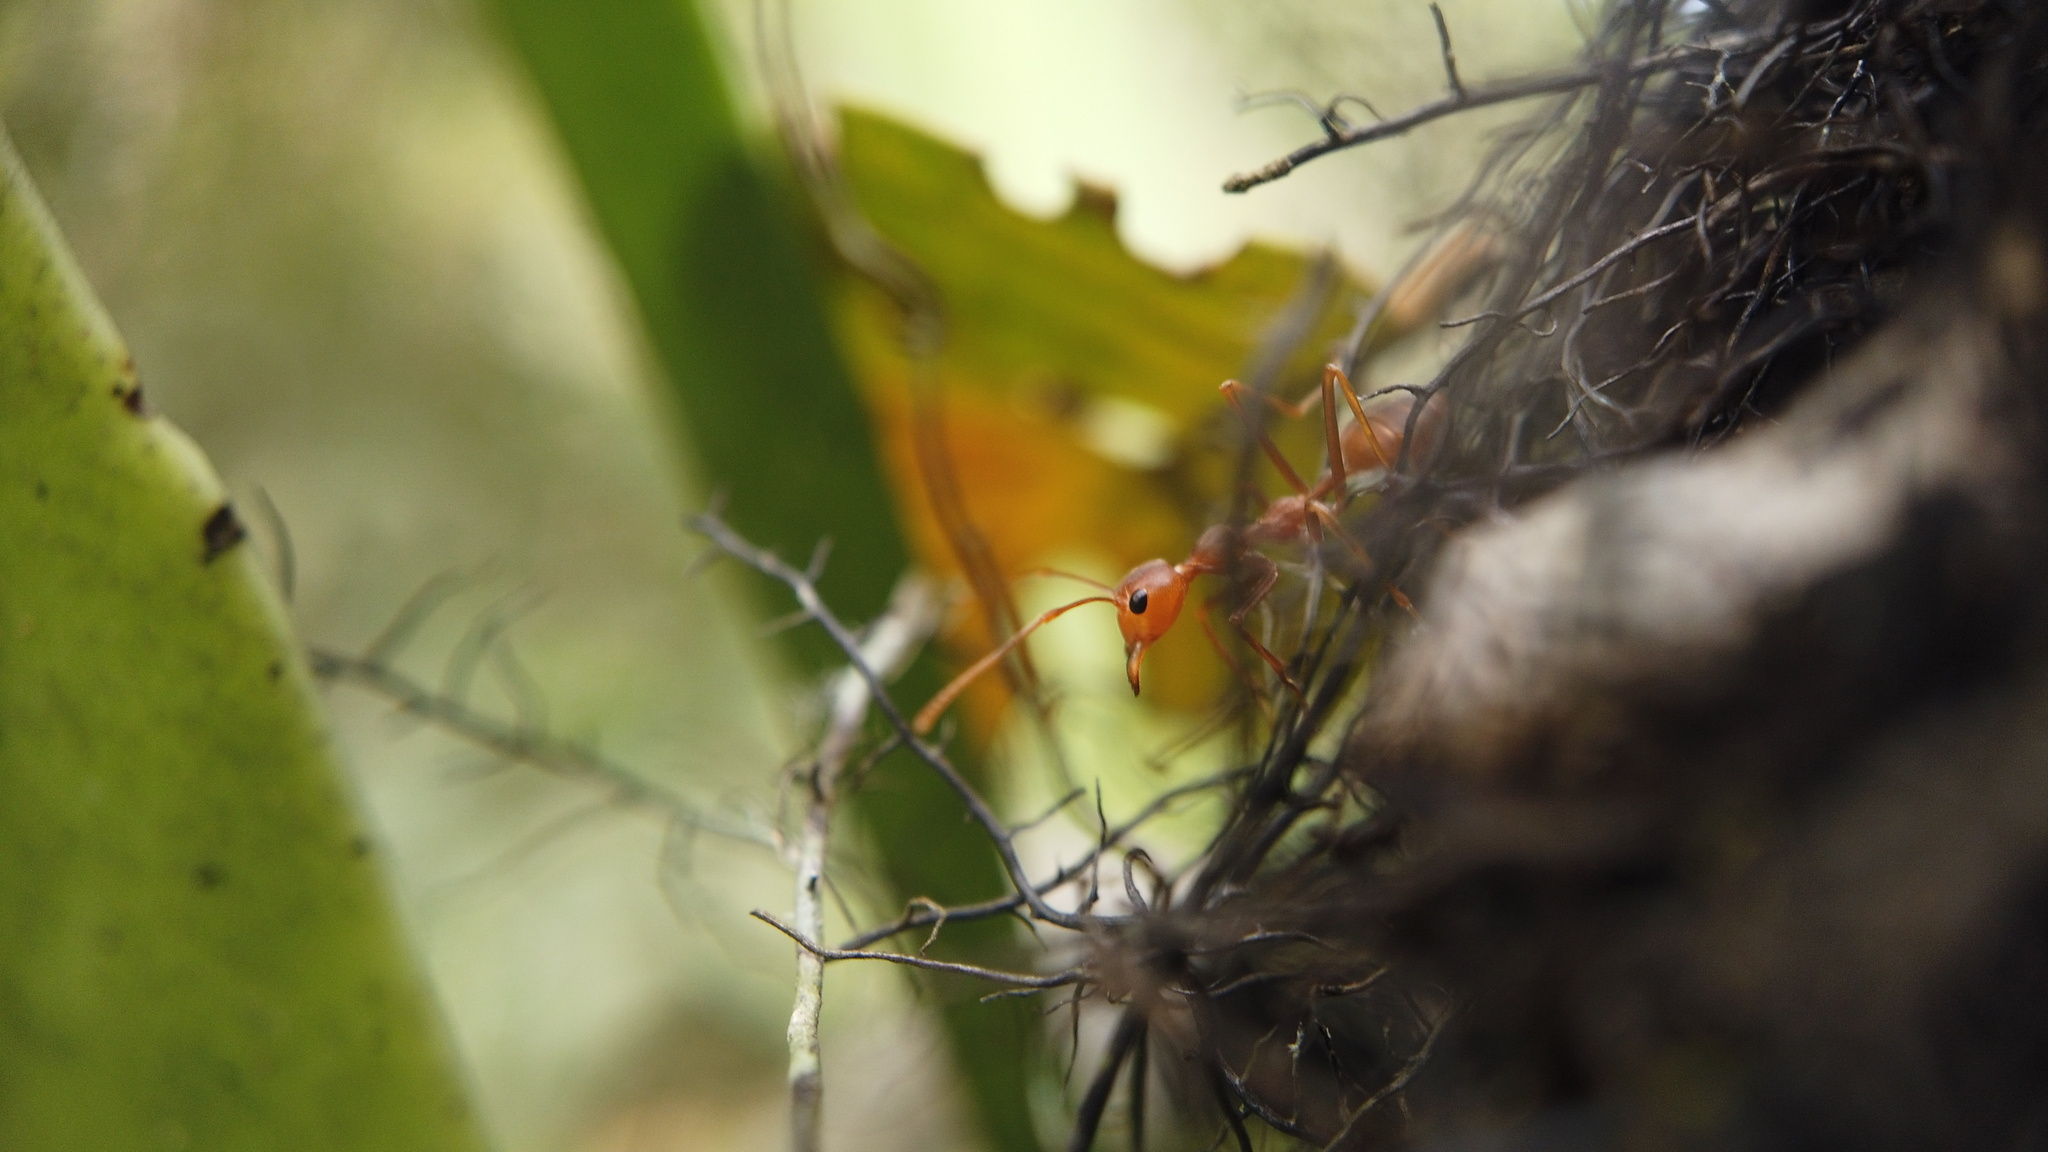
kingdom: Animalia
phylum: Arthropoda
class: Insecta
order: Hymenoptera
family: Formicidae
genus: Oecophylla
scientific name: Oecophylla smaragdina
